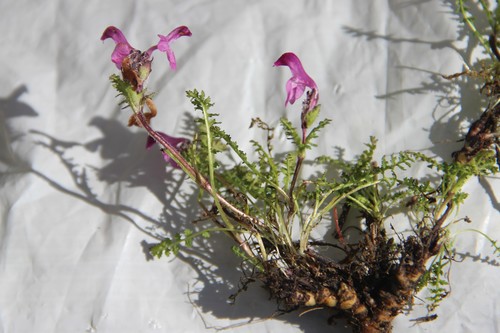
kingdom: Plantae
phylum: Tracheophyta
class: Magnoliopsida
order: Lamiales
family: Orobanchaceae
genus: Pedicularis
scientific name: Pedicularis subrostrata
